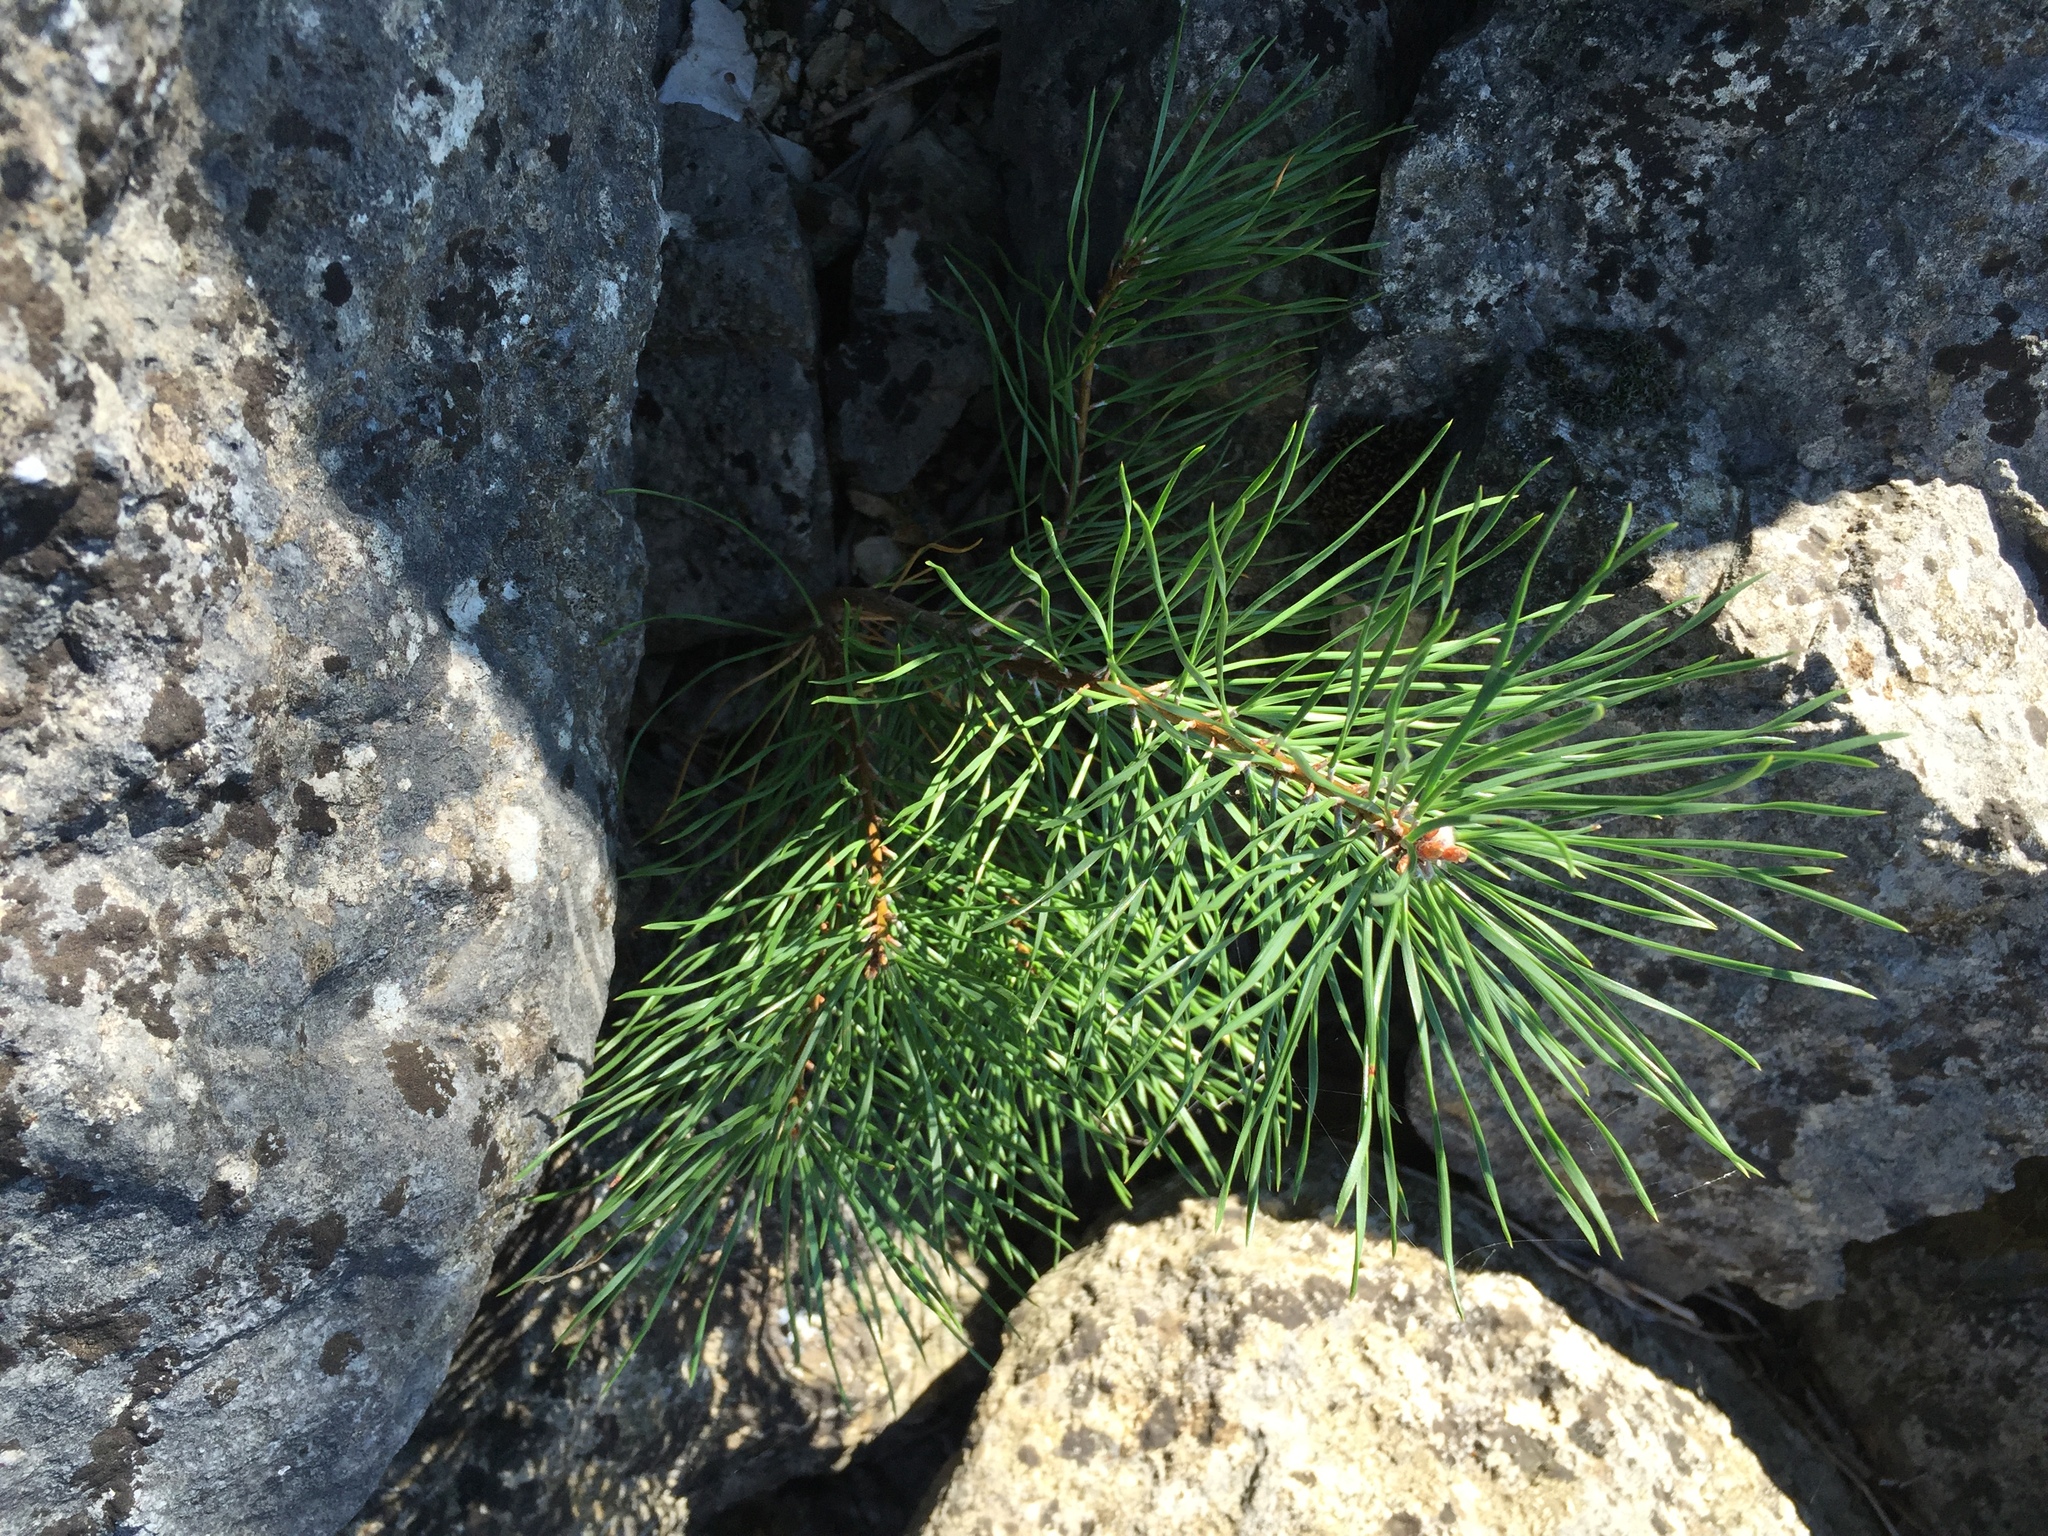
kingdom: Plantae
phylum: Tracheophyta
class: Pinopsida
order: Pinales
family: Pinaceae
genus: Pinus
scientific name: Pinus sylvestris
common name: Scots pine
